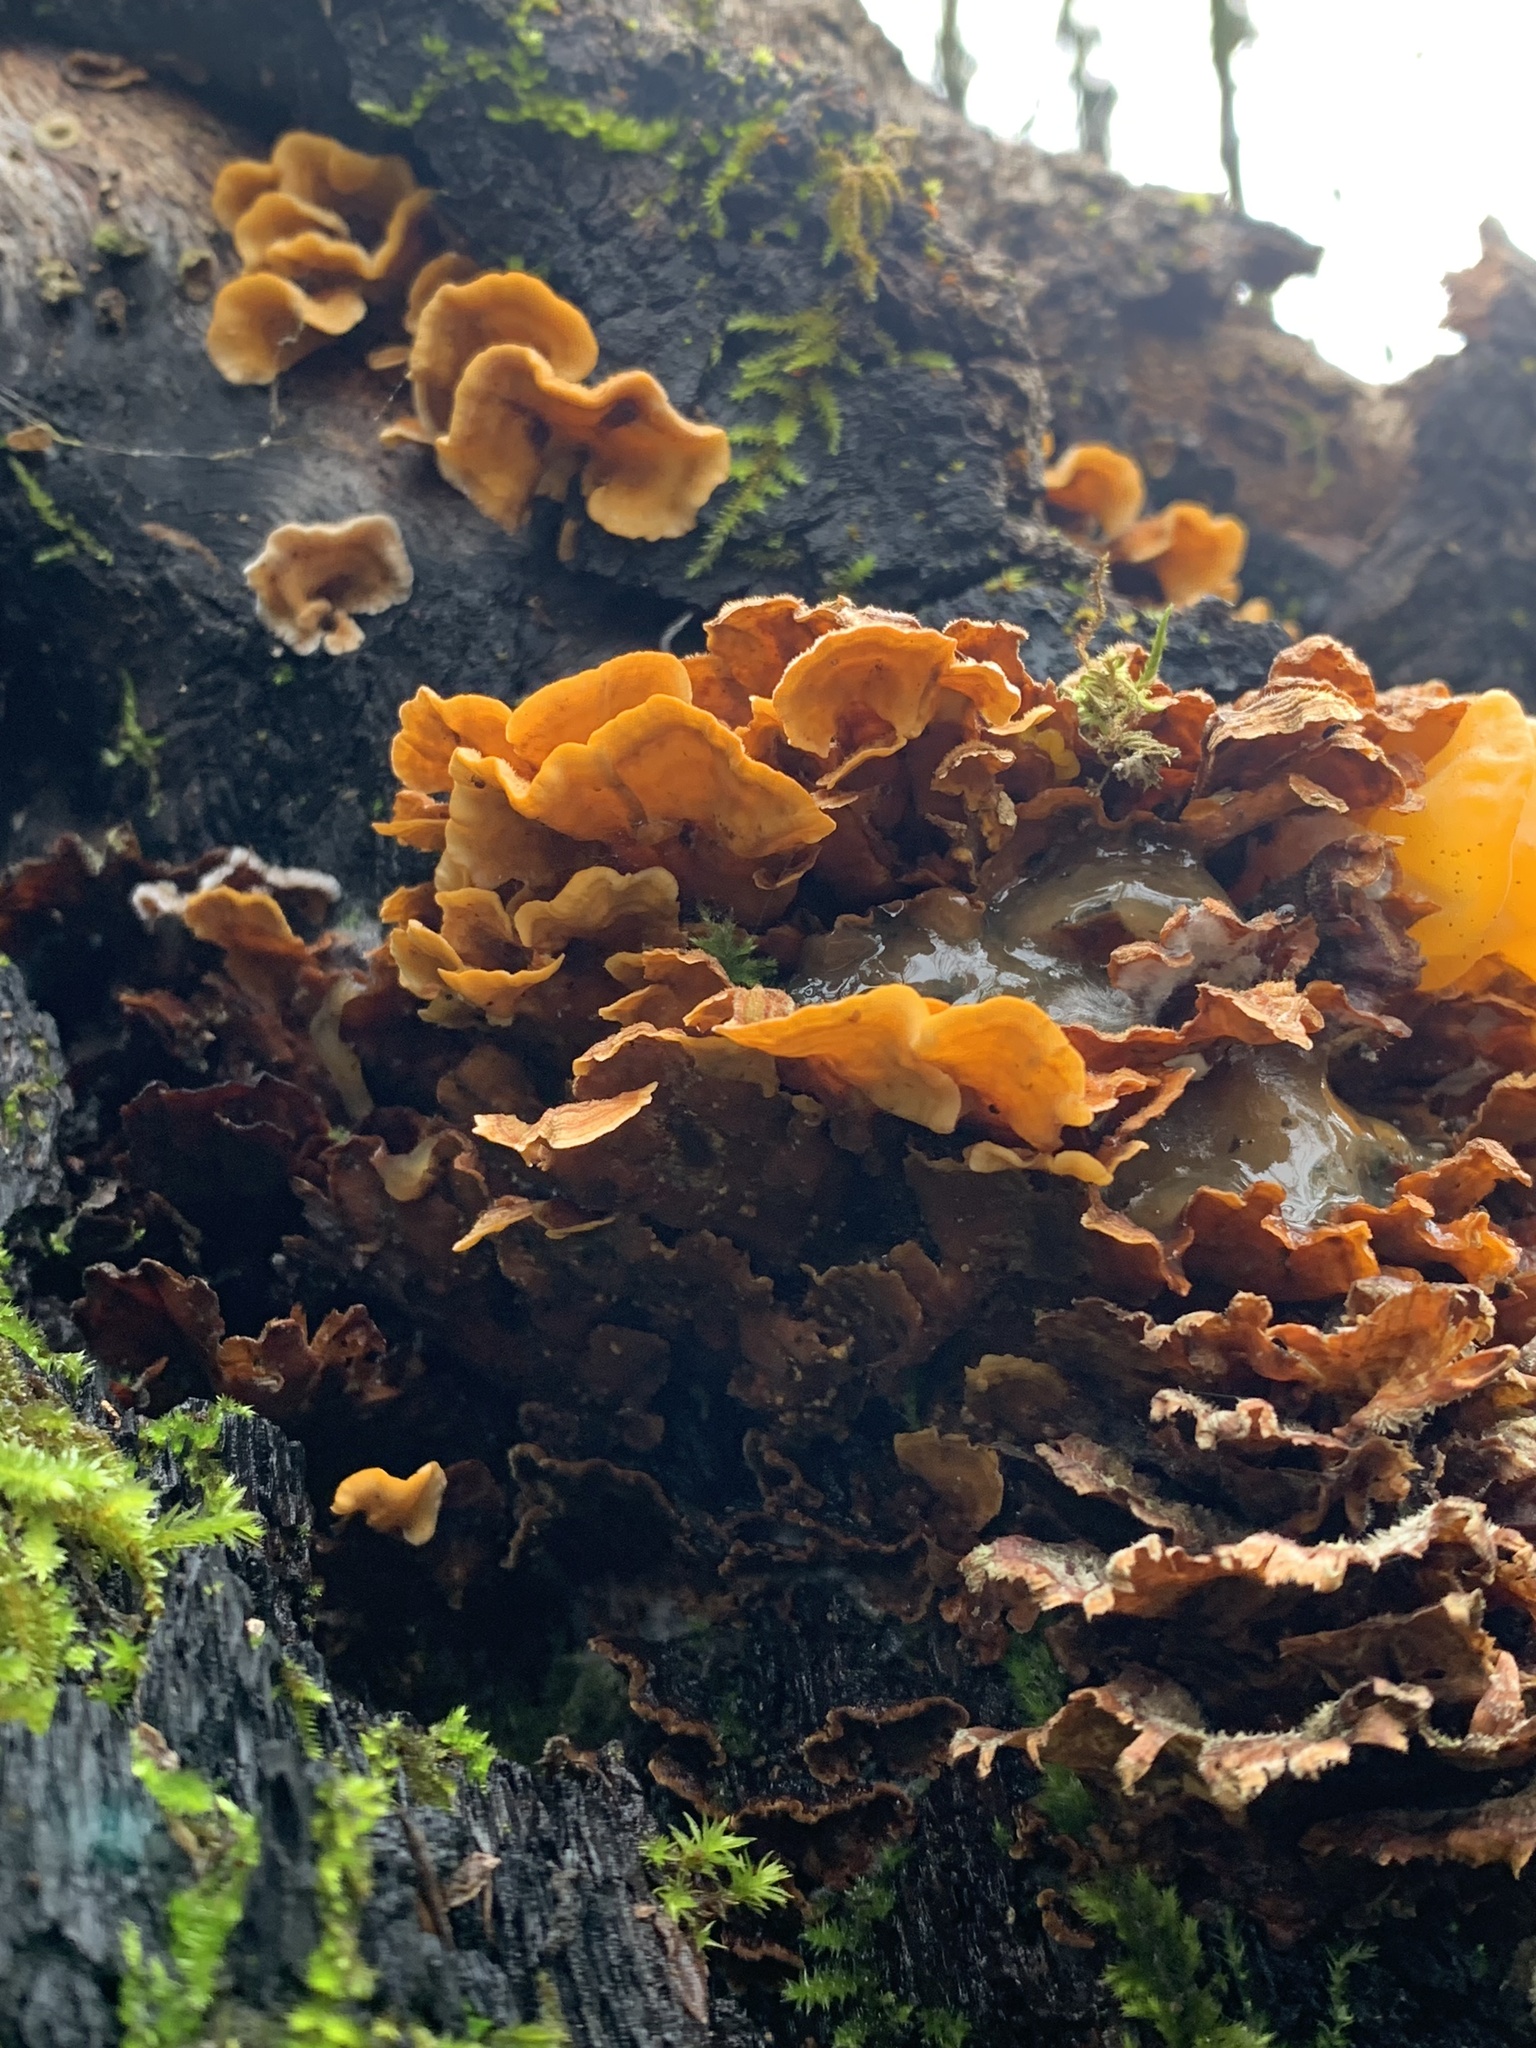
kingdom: Fungi
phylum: Basidiomycota
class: Agaricomycetes
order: Russulales
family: Stereaceae
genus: Stereum
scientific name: Stereum hirsutum
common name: Hairy curtain crust
